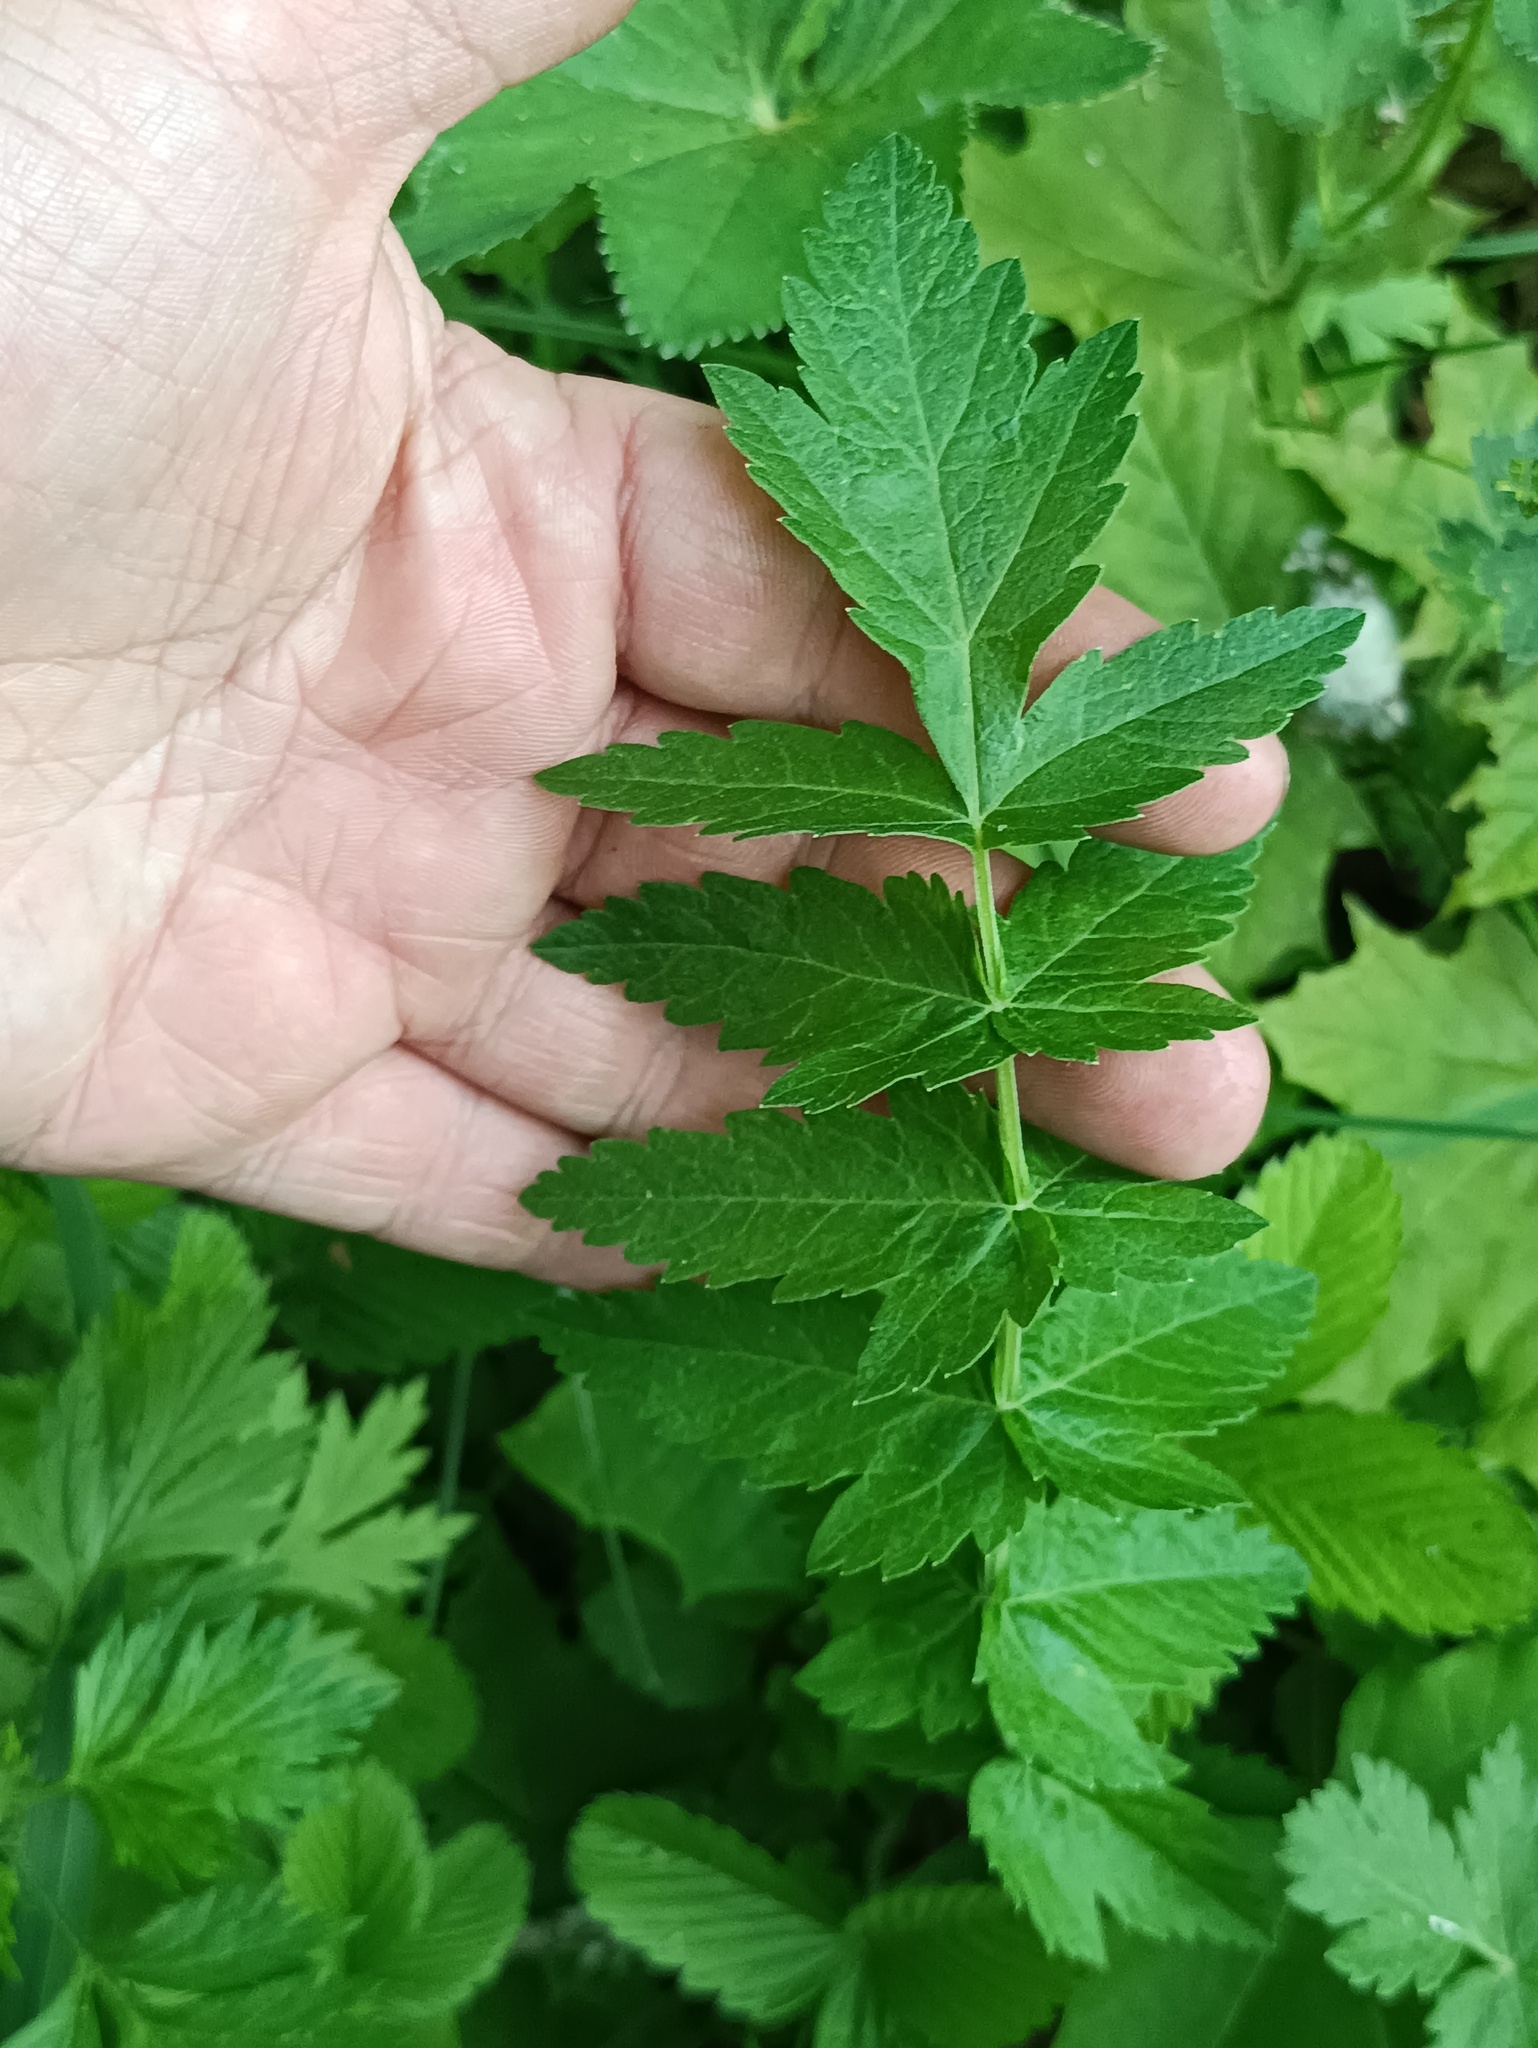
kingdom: Plantae
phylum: Tracheophyta
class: Magnoliopsida
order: Apiales
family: Apiaceae
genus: Pastinaca
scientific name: Pastinaca sativa
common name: Wild parsnip
